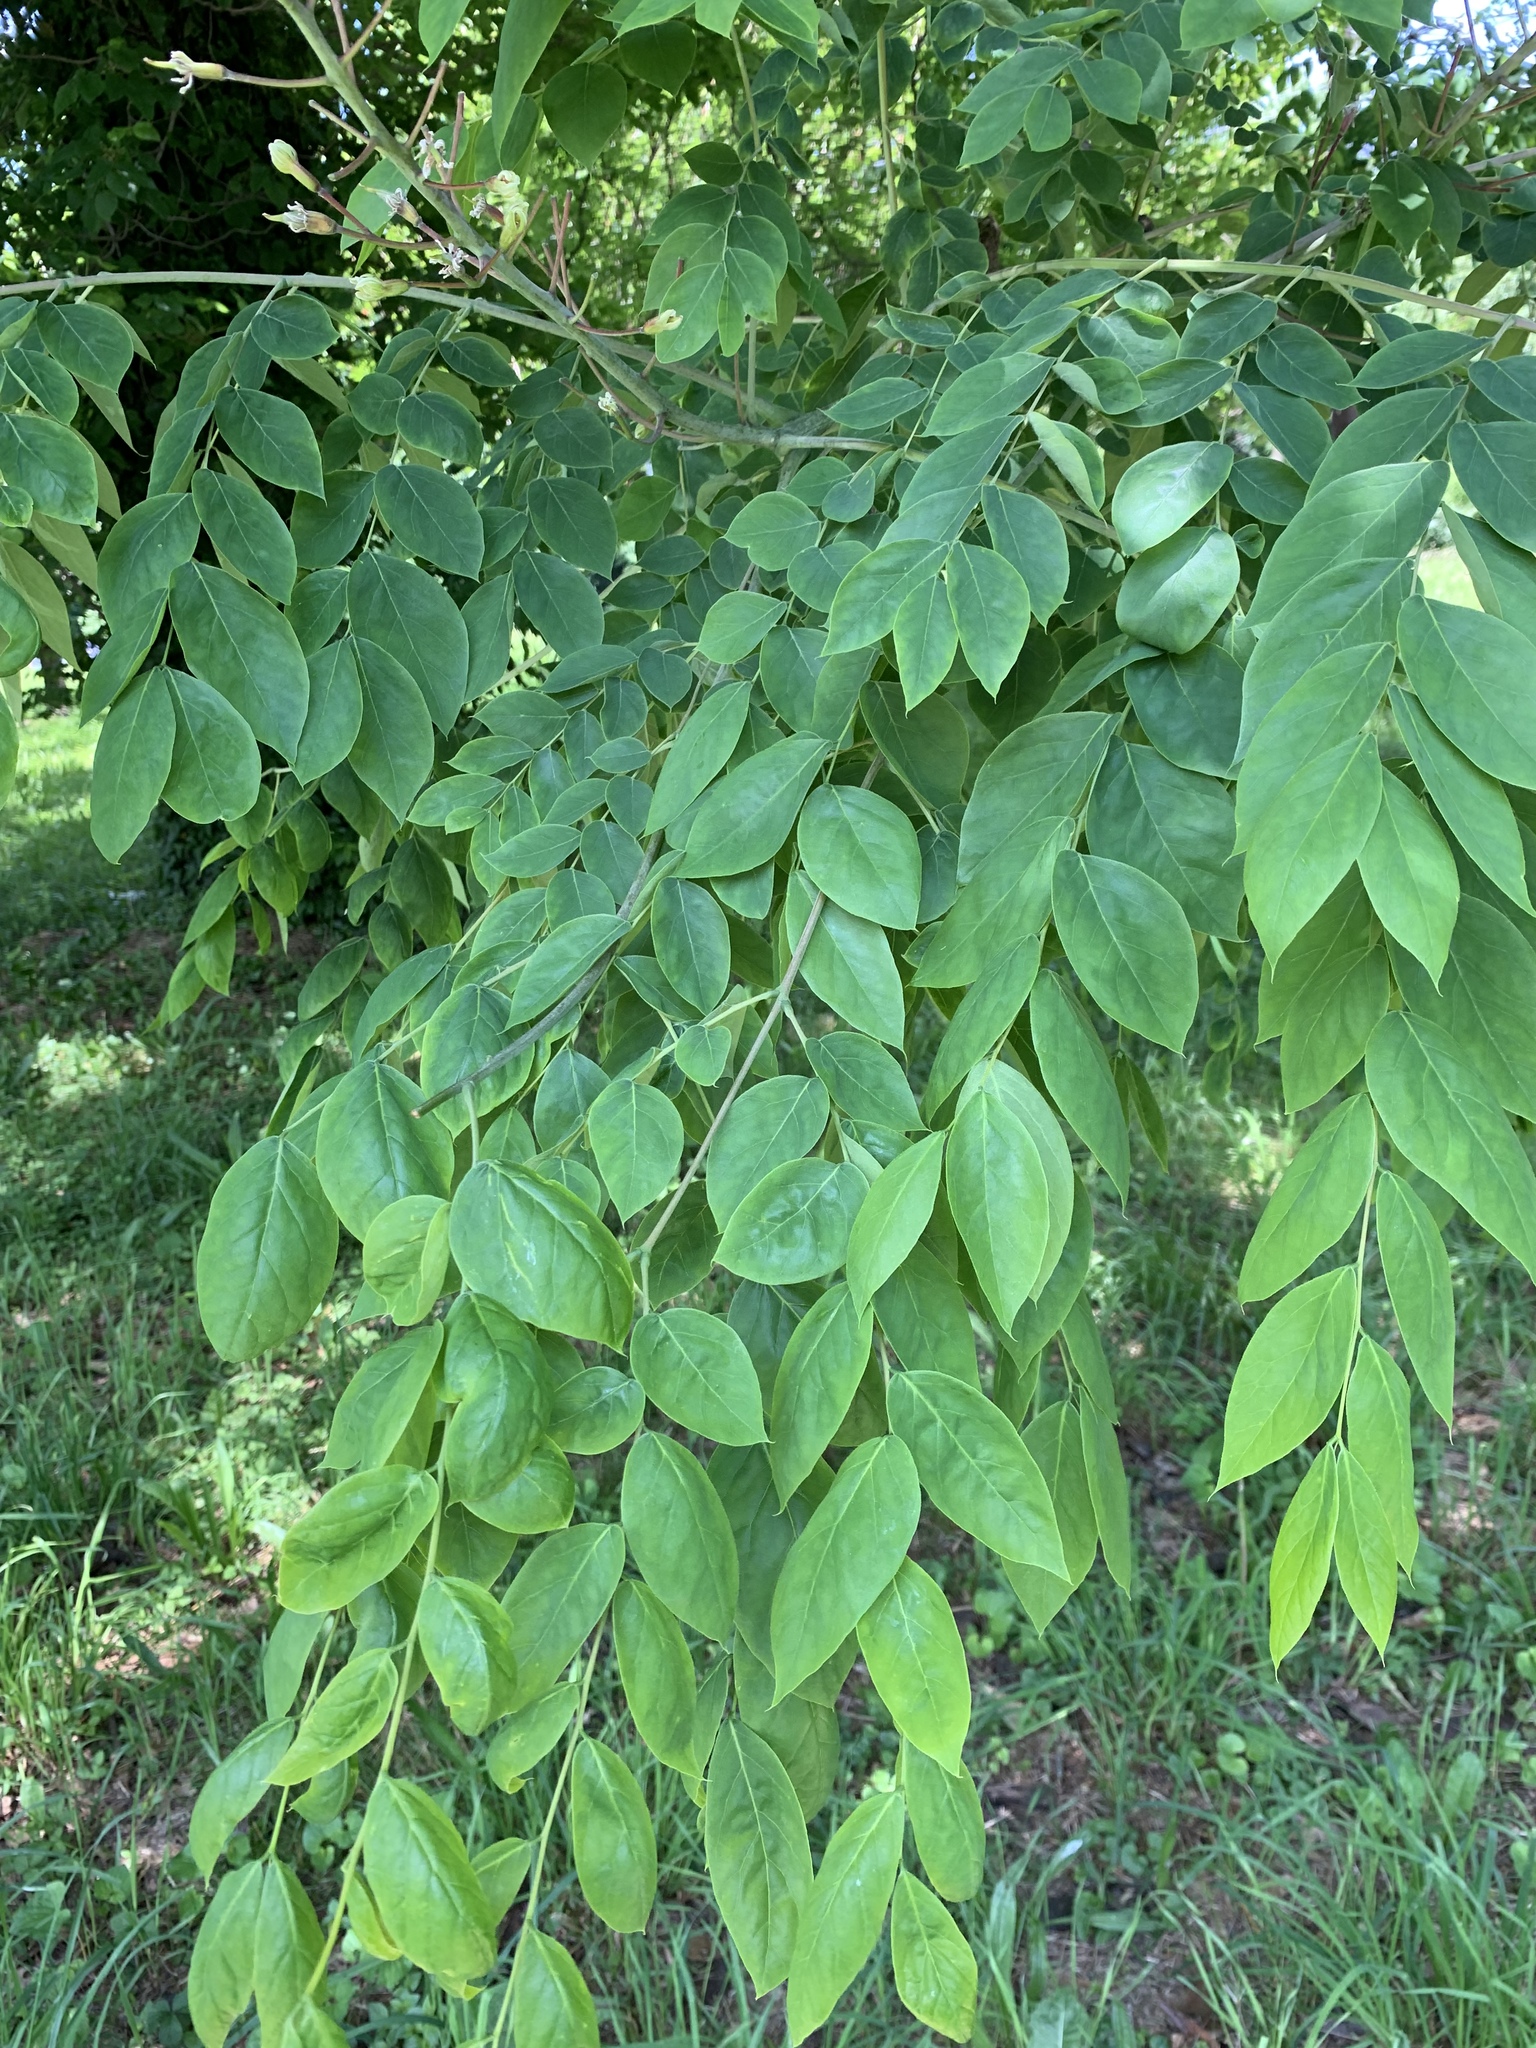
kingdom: Plantae
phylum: Tracheophyta
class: Magnoliopsida
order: Fabales
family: Fabaceae
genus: Gymnocladus
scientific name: Gymnocladus dioicus
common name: Kentucky coffee-tree
